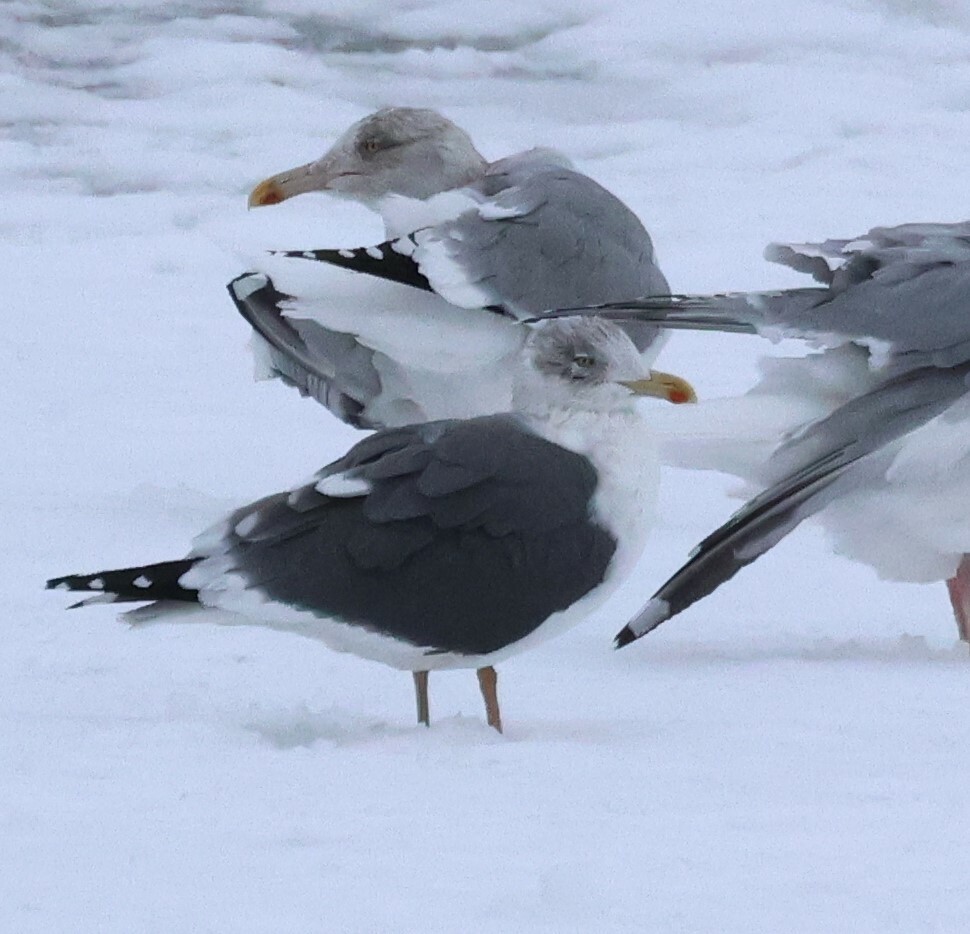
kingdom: Animalia
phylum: Chordata
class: Aves
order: Charadriiformes
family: Laridae
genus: Larus
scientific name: Larus fuscus
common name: Lesser black-backed gull
